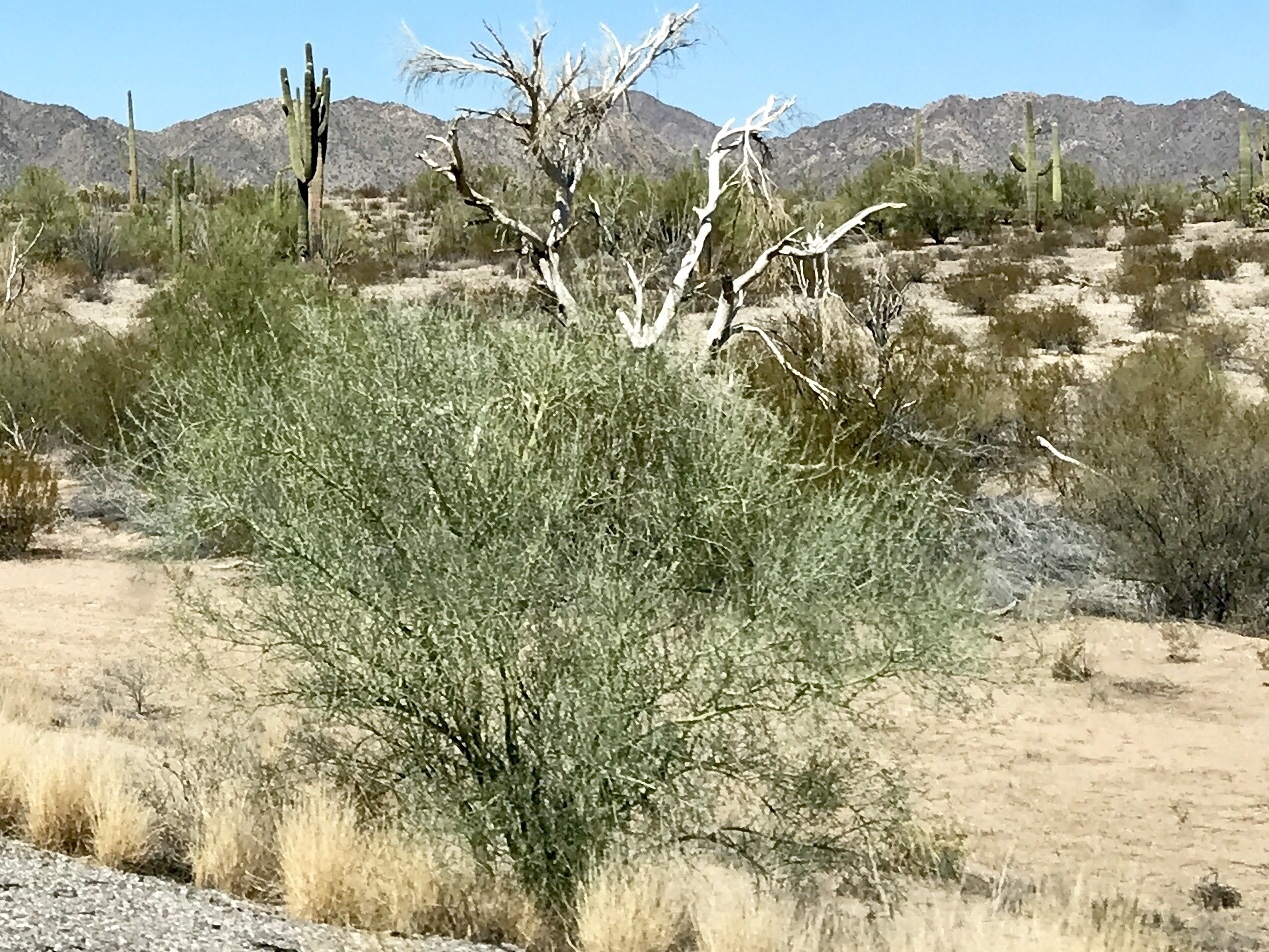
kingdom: Plantae
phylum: Tracheophyta
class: Magnoliopsida
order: Fabales
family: Fabaceae
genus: Parkinsonia
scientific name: Parkinsonia florida
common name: Blue paloverde
